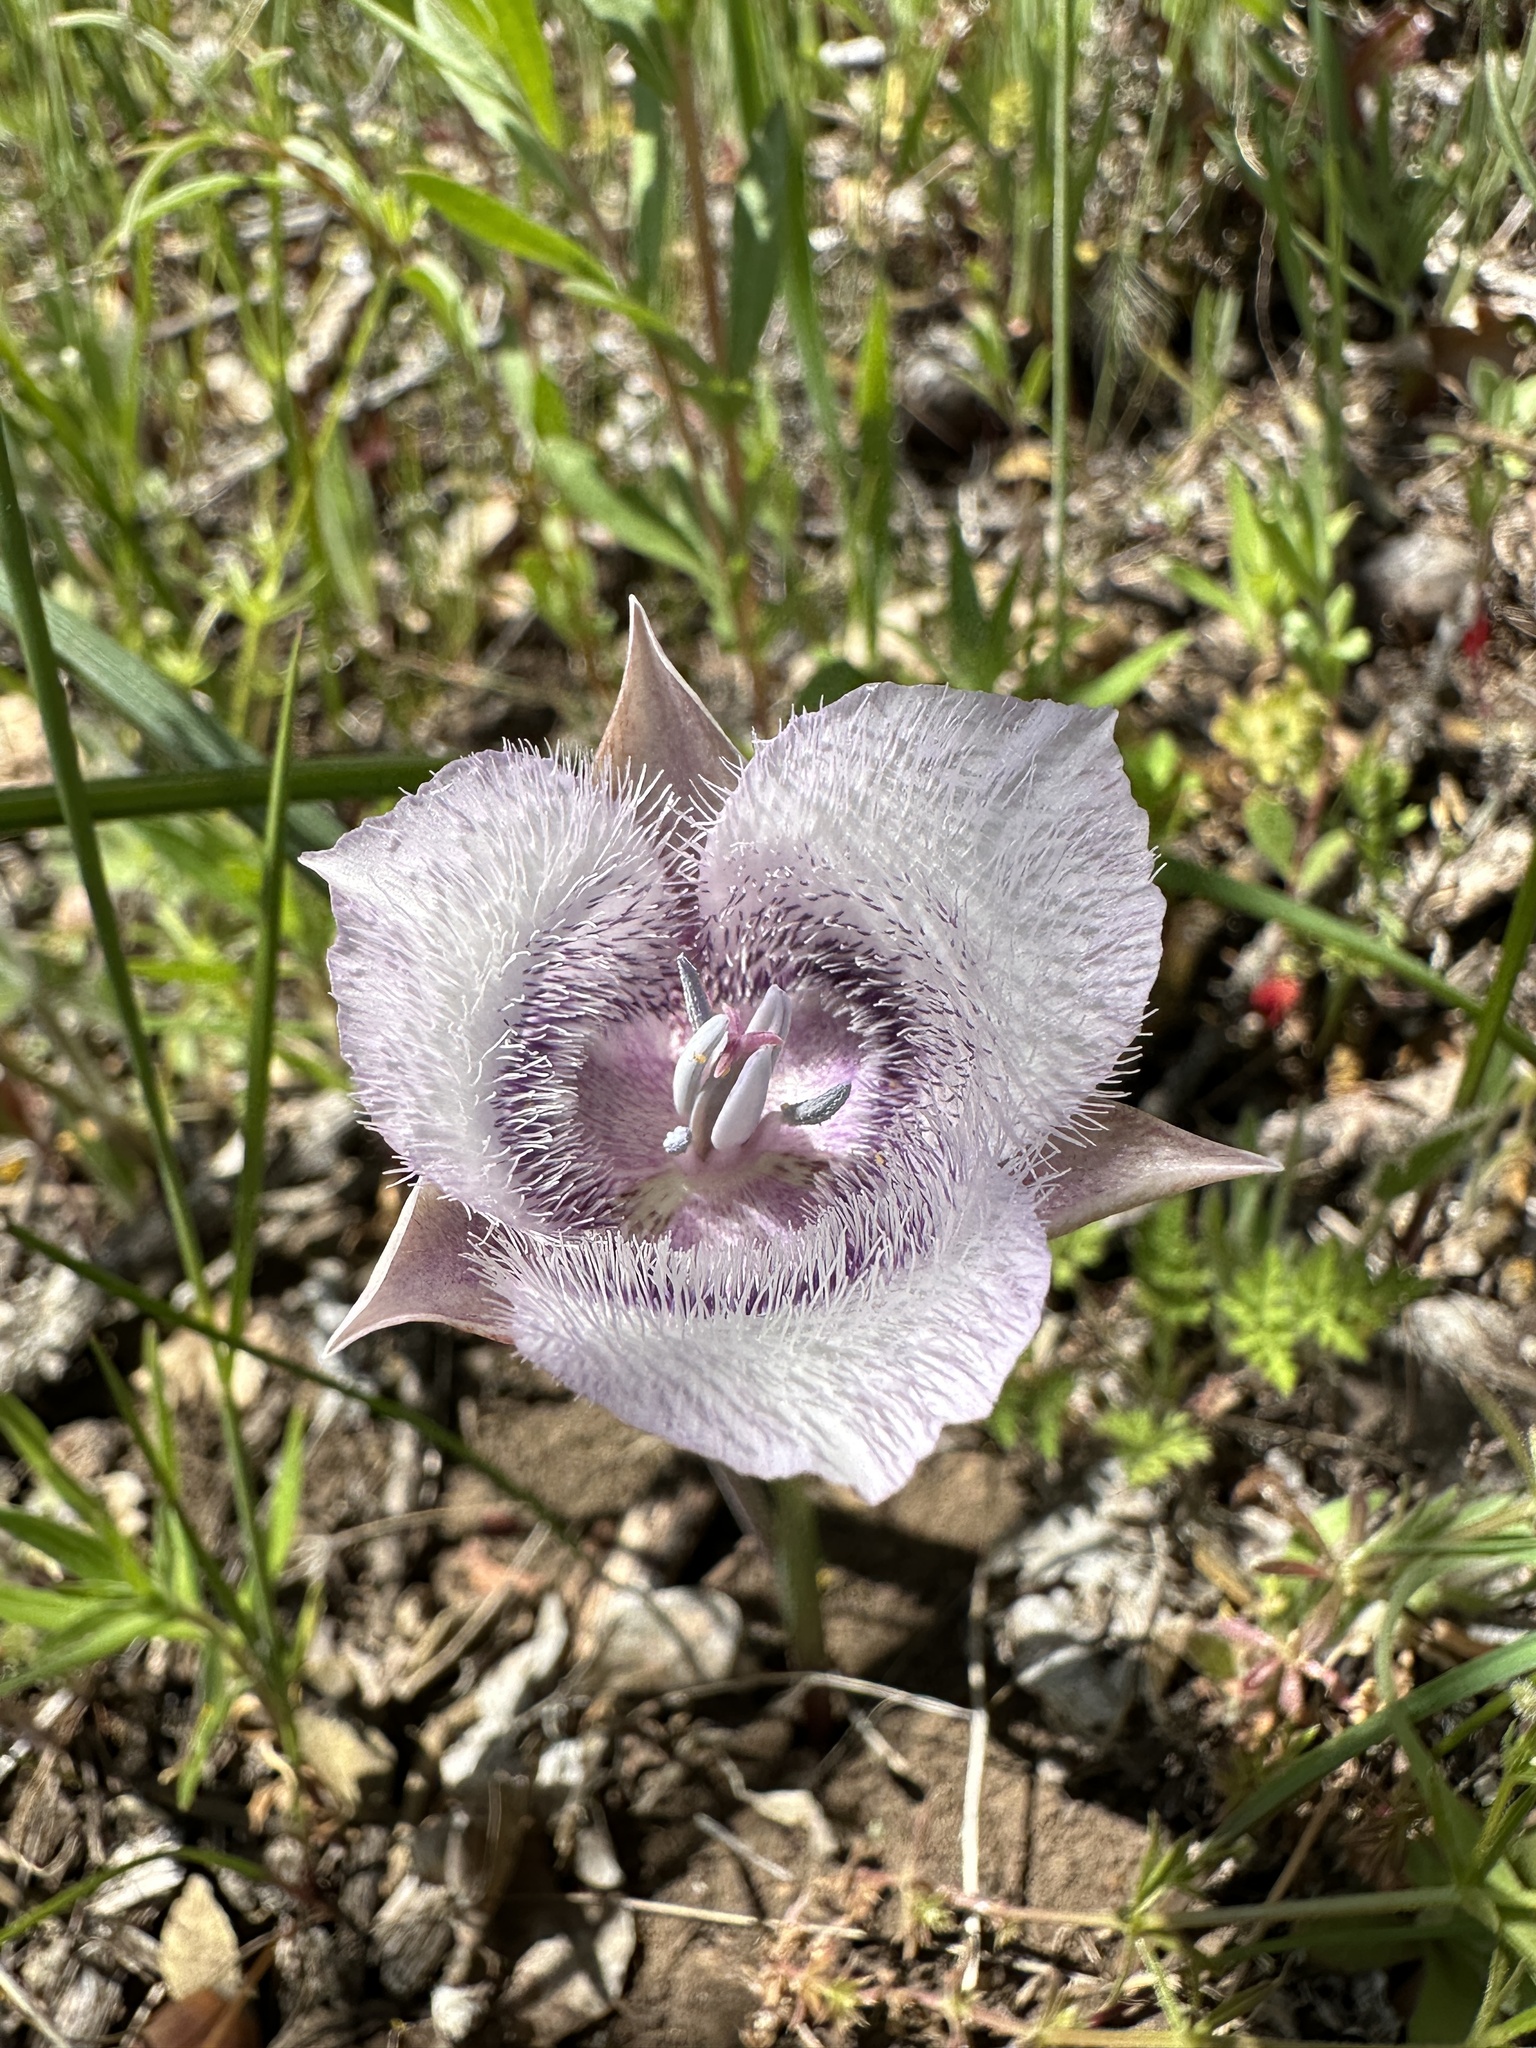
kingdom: Plantae
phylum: Tracheophyta
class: Liliopsida
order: Liliales
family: Liliaceae
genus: Calochortus
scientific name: Calochortus tolmiei
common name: Pussy-ears
